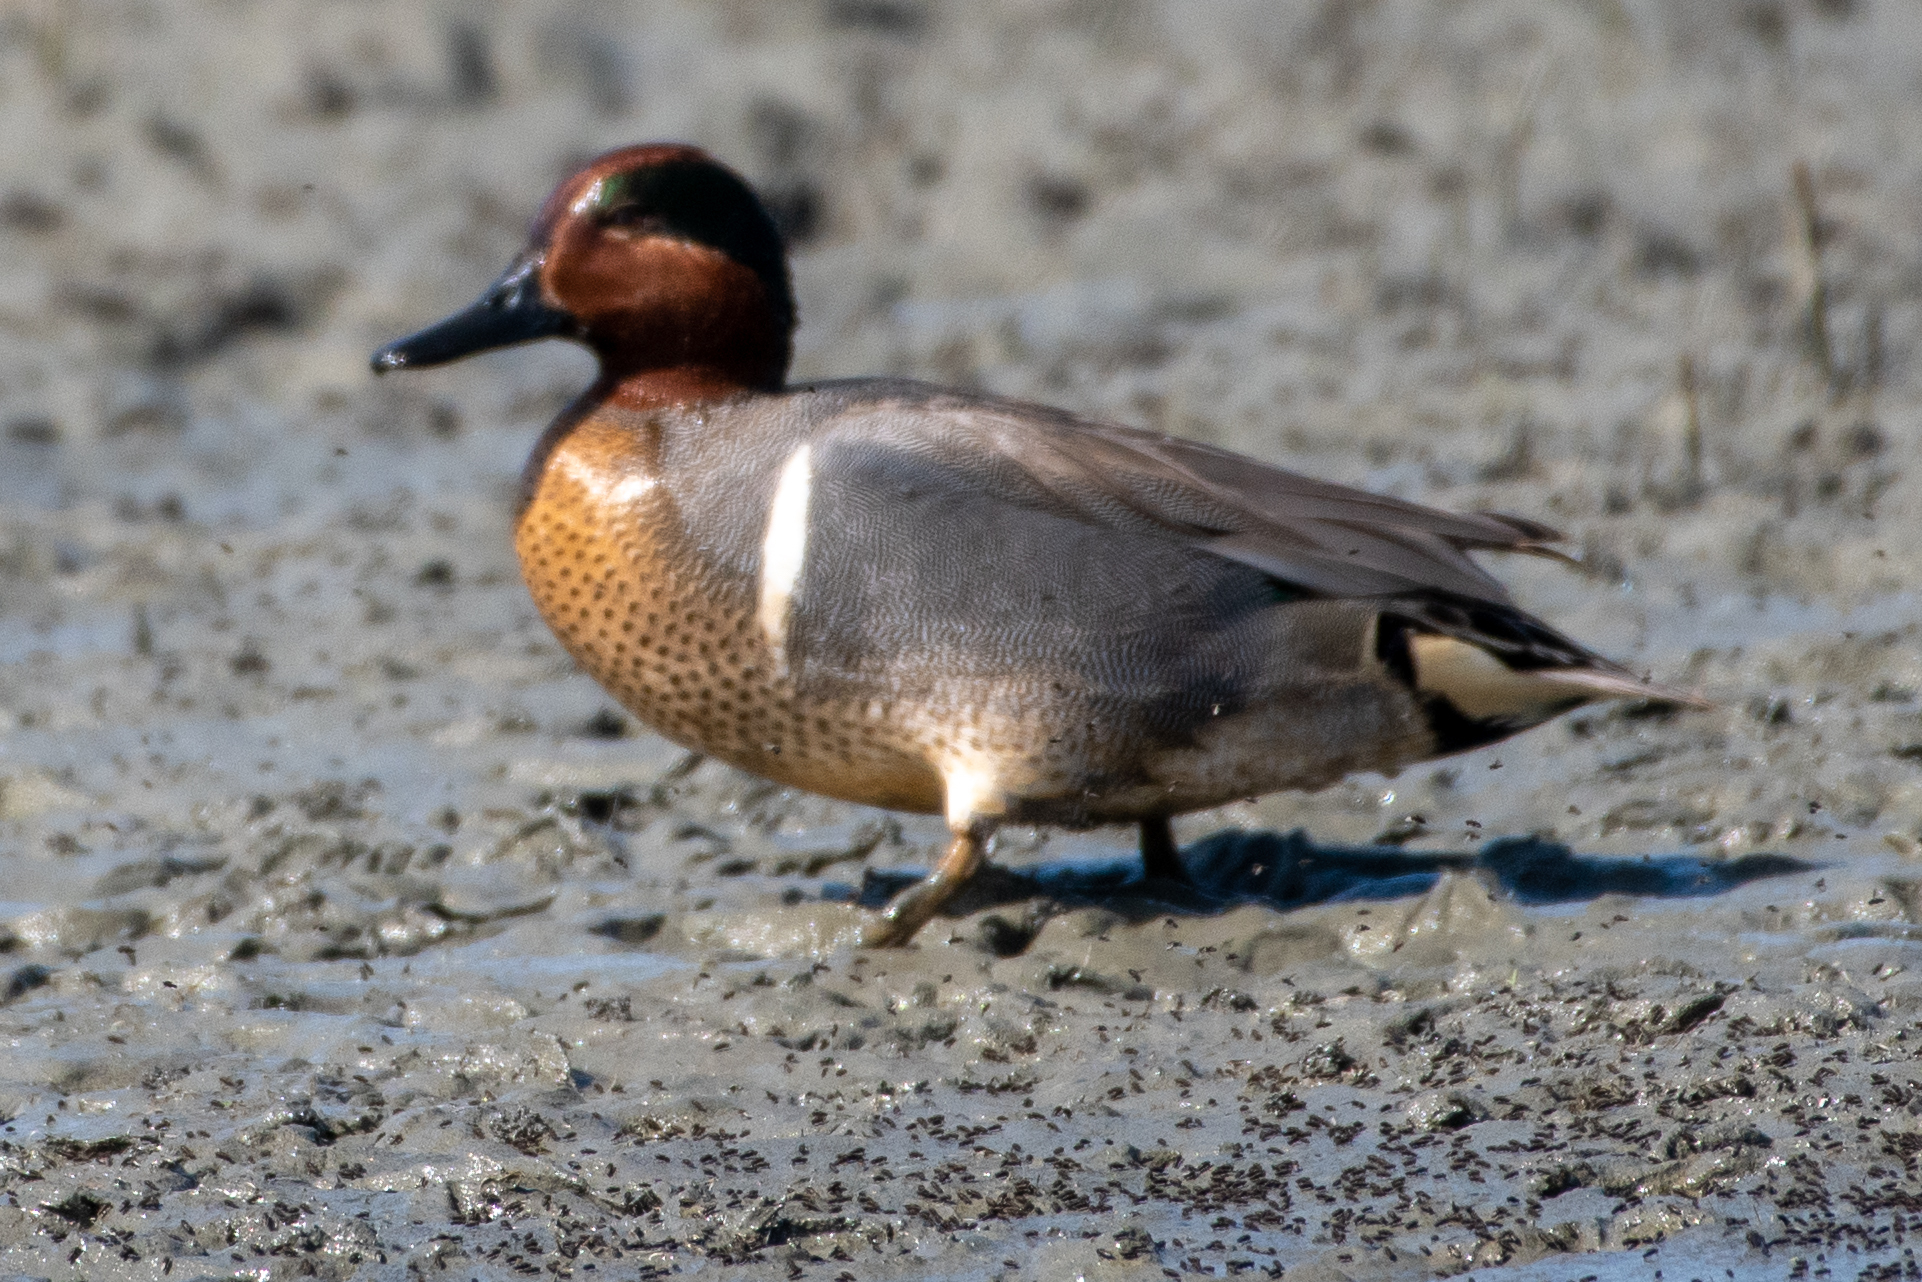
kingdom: Animalia
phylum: Chordata
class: Aves
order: Anseriformes
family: Anatidae
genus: Anas
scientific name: Anas crecca
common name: Eurasian teal
